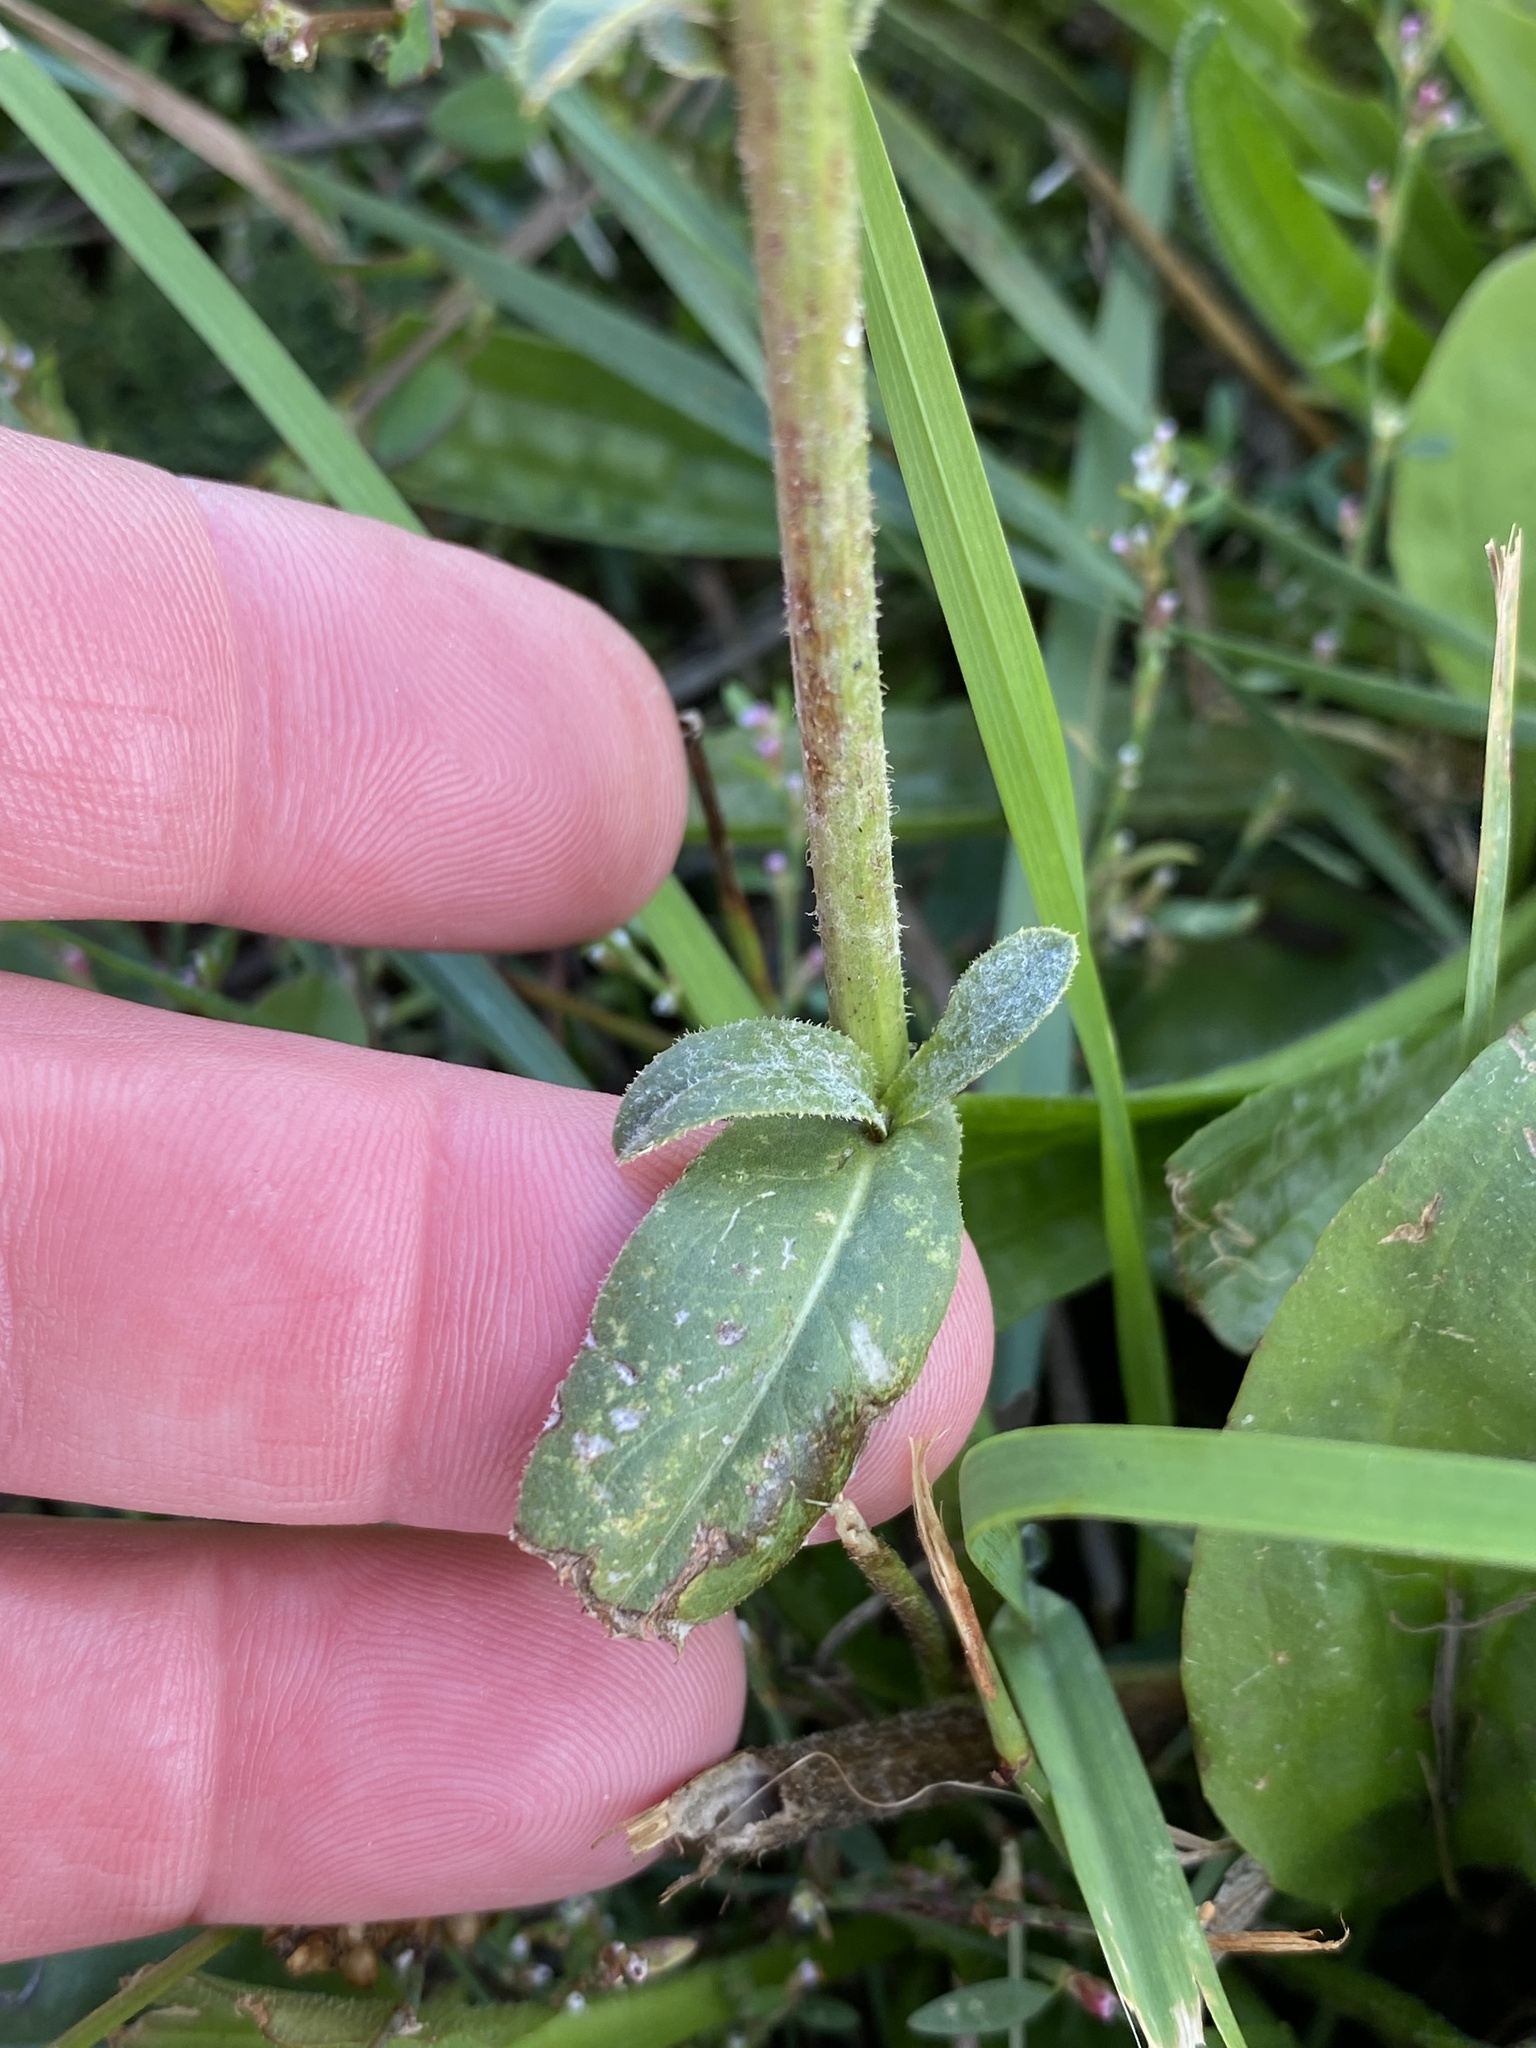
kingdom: Plantae
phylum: Tracheophyta
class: Magnoliopsida
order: Asterales
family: Asteraceae
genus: Cichorium
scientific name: Cichorium intybus
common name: Chicory
